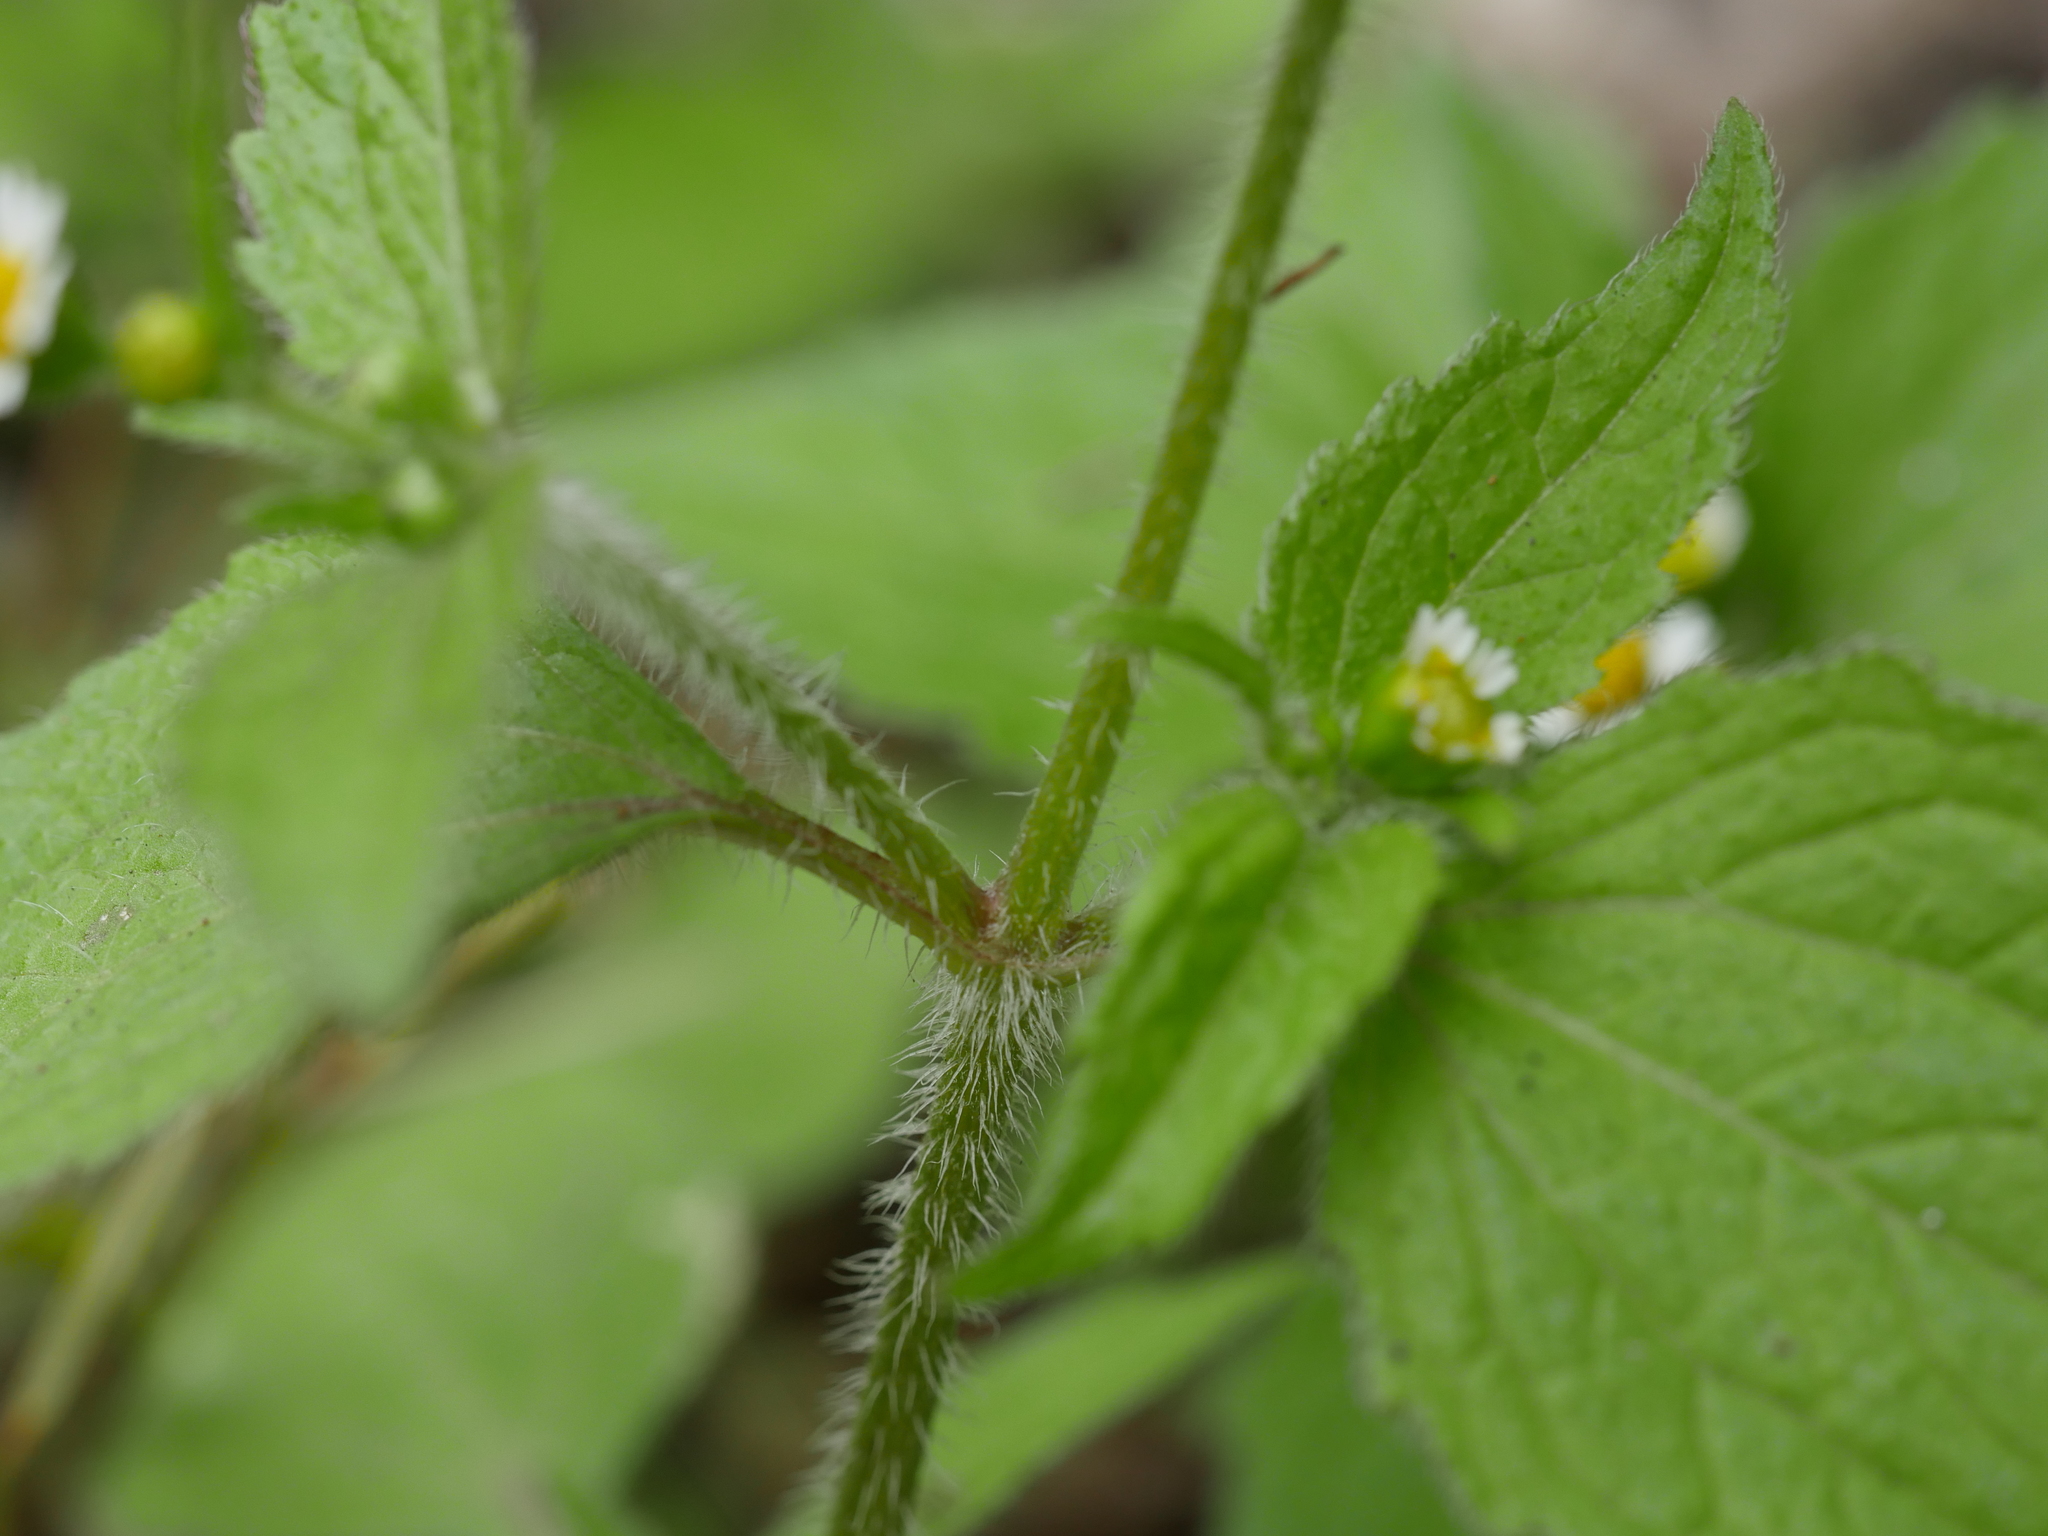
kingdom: Plantae
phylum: Tracheophyta
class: Magnoliopsida
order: Asterales
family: Asteraceae
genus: Galinsoga
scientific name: Galinsoga quadriradiata
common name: Shaggy soldier
